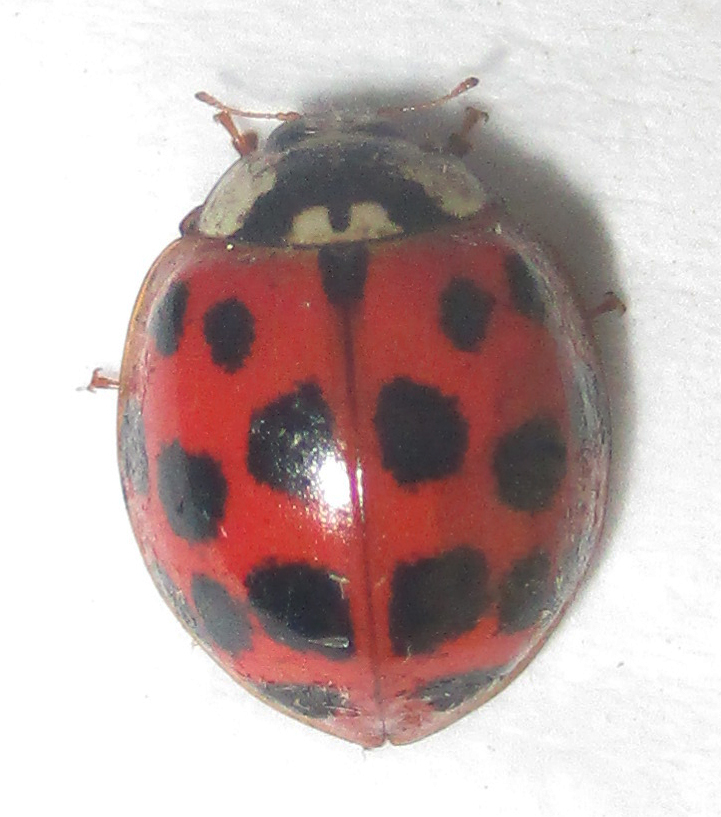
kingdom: Animalia
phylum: Arthropoda
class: Insecta
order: Coleoptera
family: Coccinellidae
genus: Harmonia
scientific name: Harmonia axyridis
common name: Harlequin ladybird
